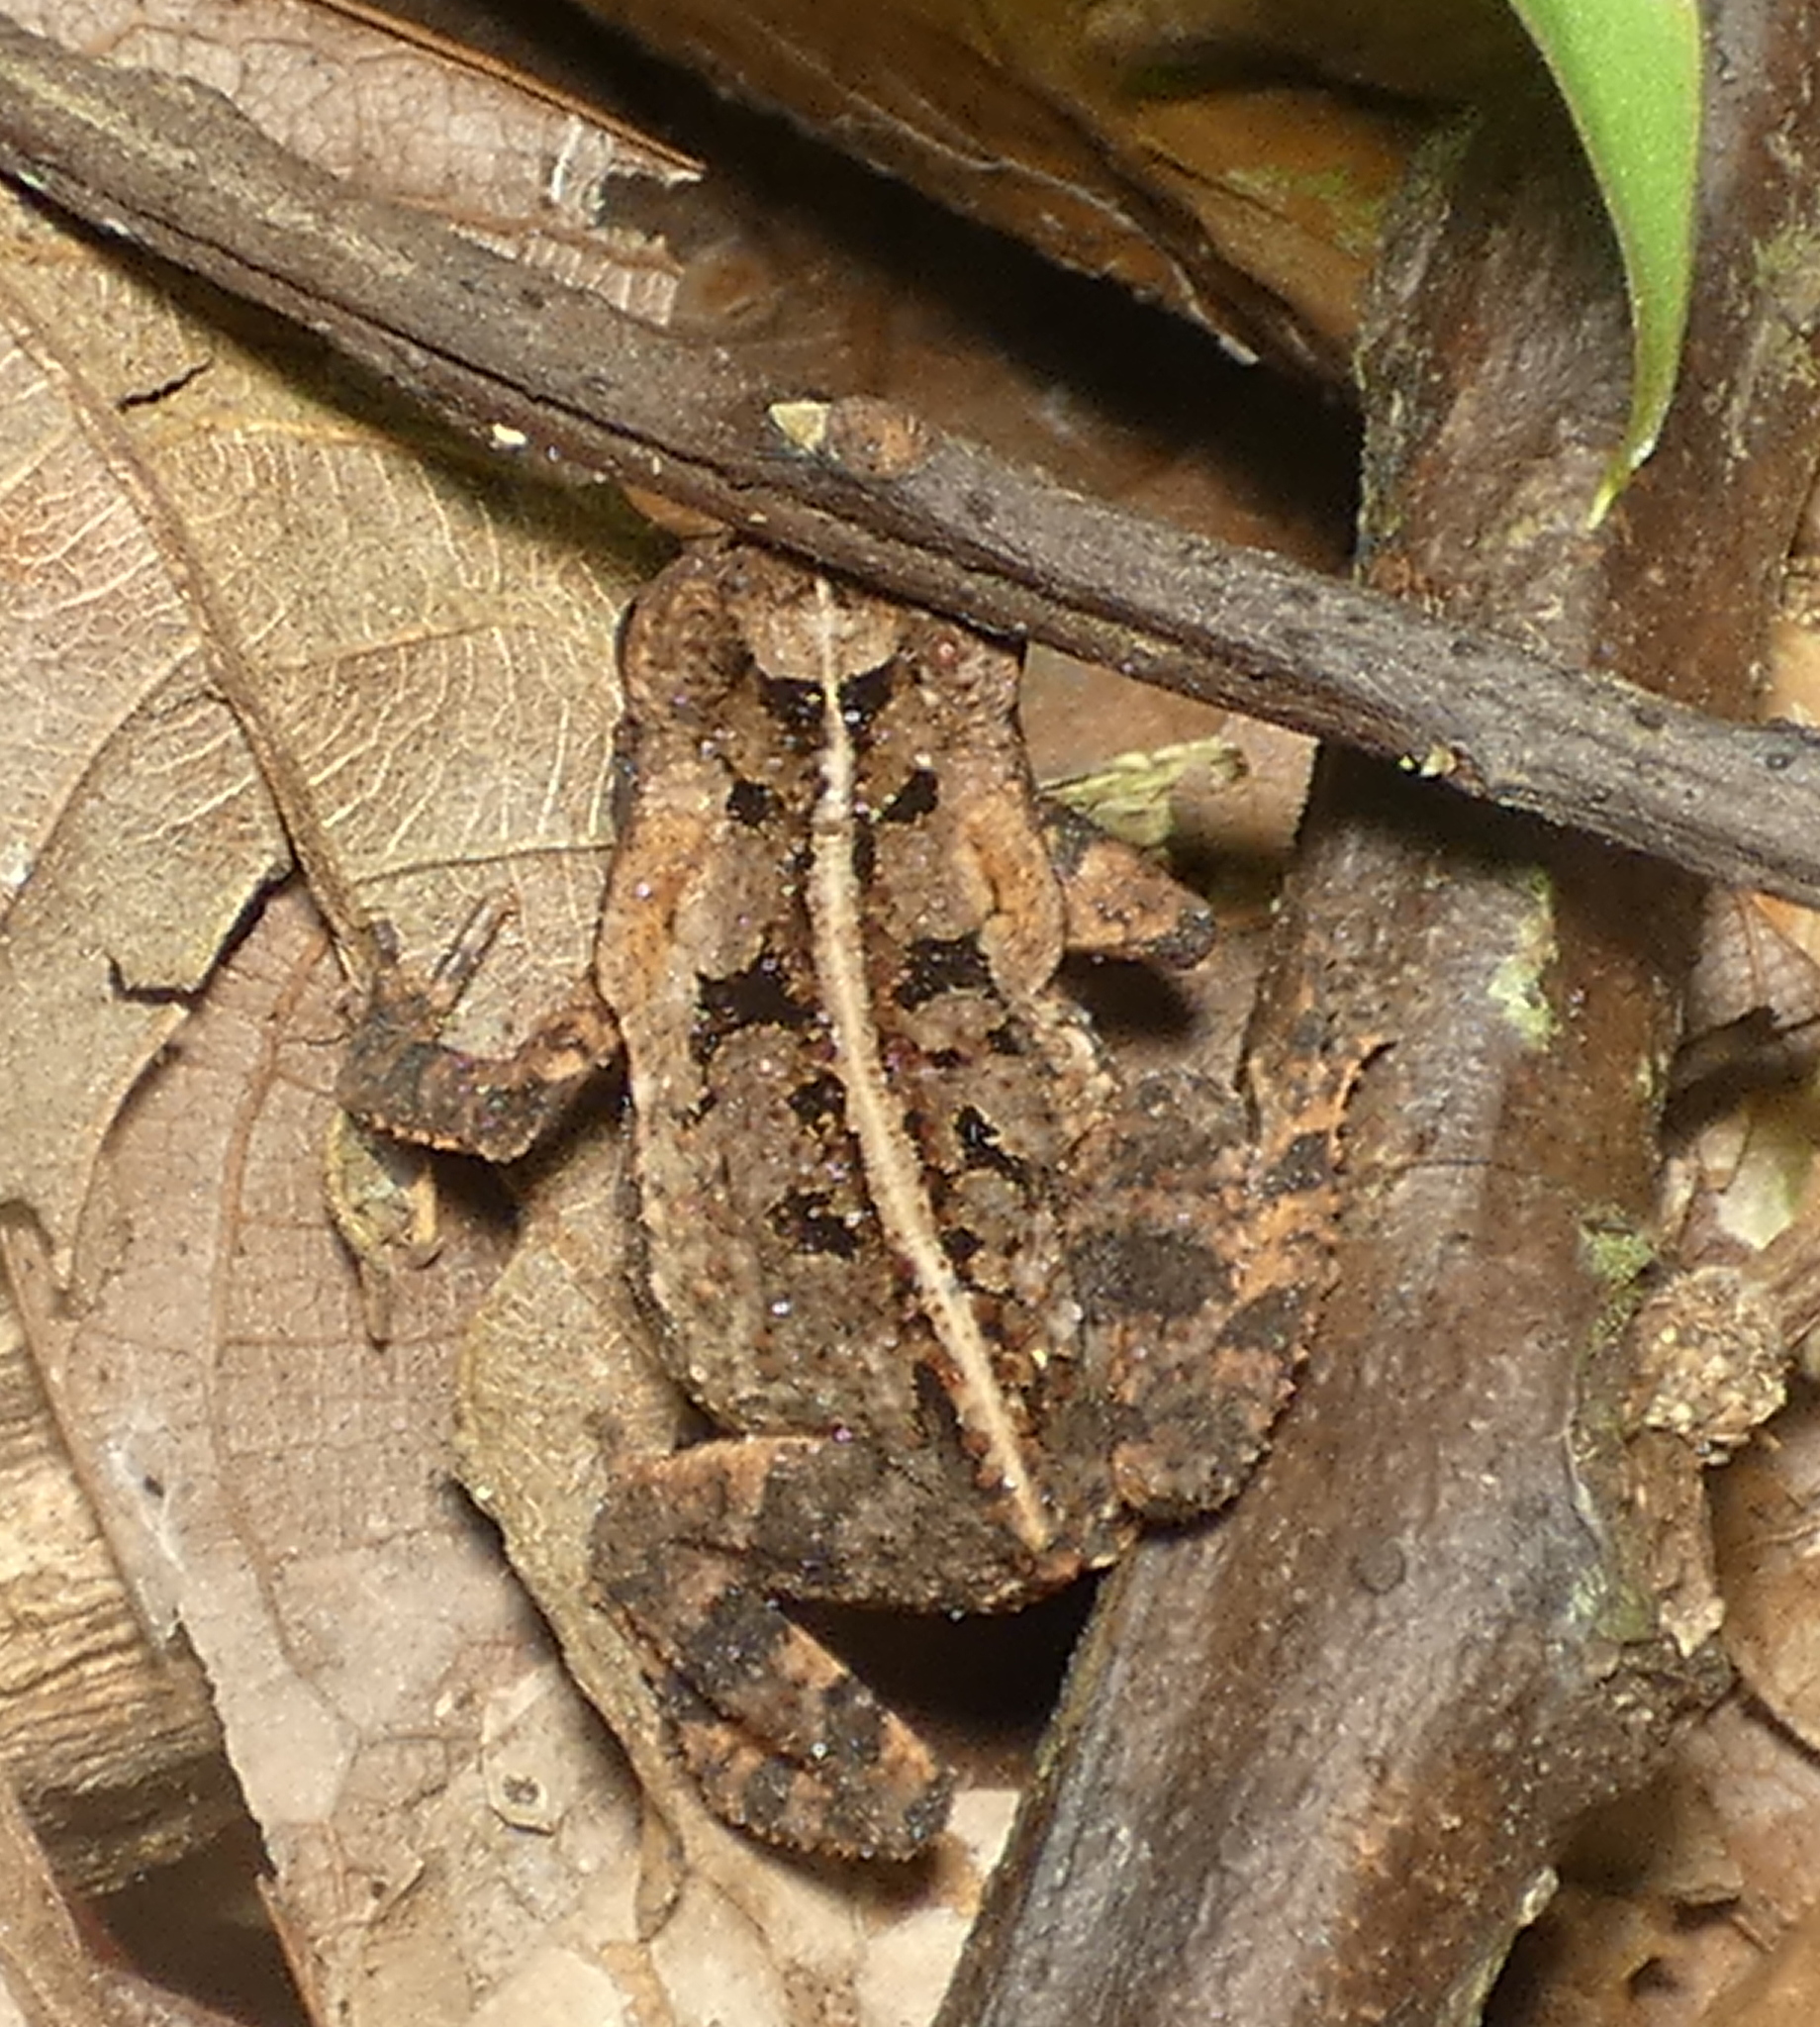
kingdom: Animalia
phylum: Chordata
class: Amphibia
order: Anura
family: Bufonidae
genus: Rhinella
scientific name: Rhinella crucifer
